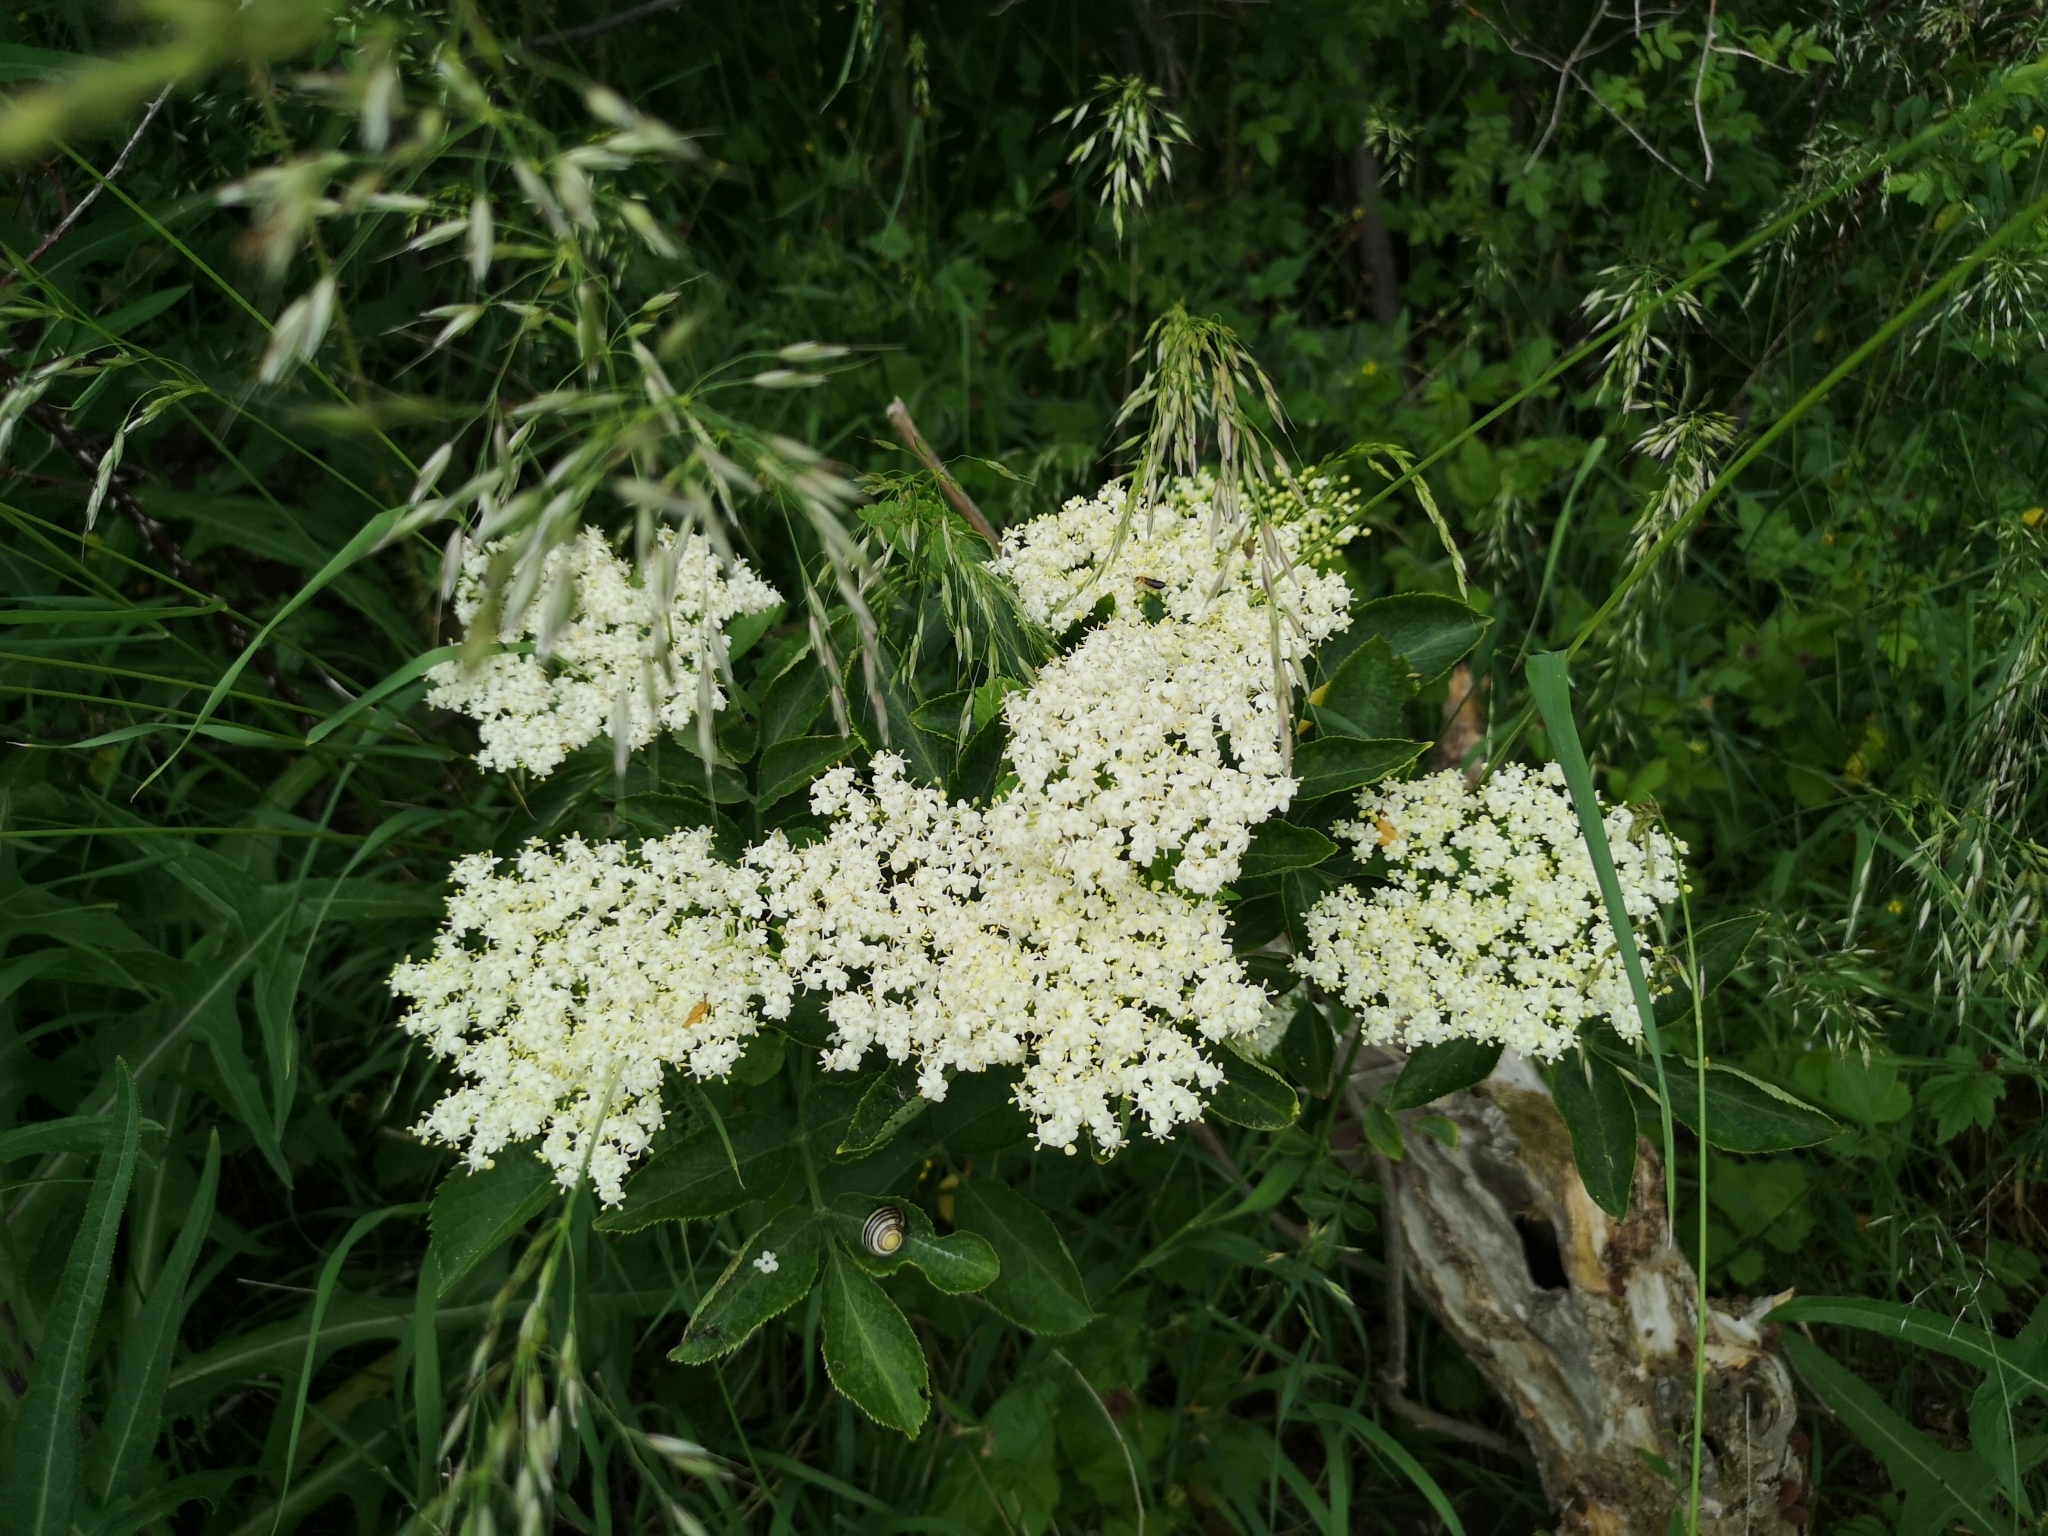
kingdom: Plantae
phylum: Tracheophyta
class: Magnoliopsida
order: Dipsacales
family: Viburnaceae
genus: Sambucus
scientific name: Sambucus nigra
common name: Elder
